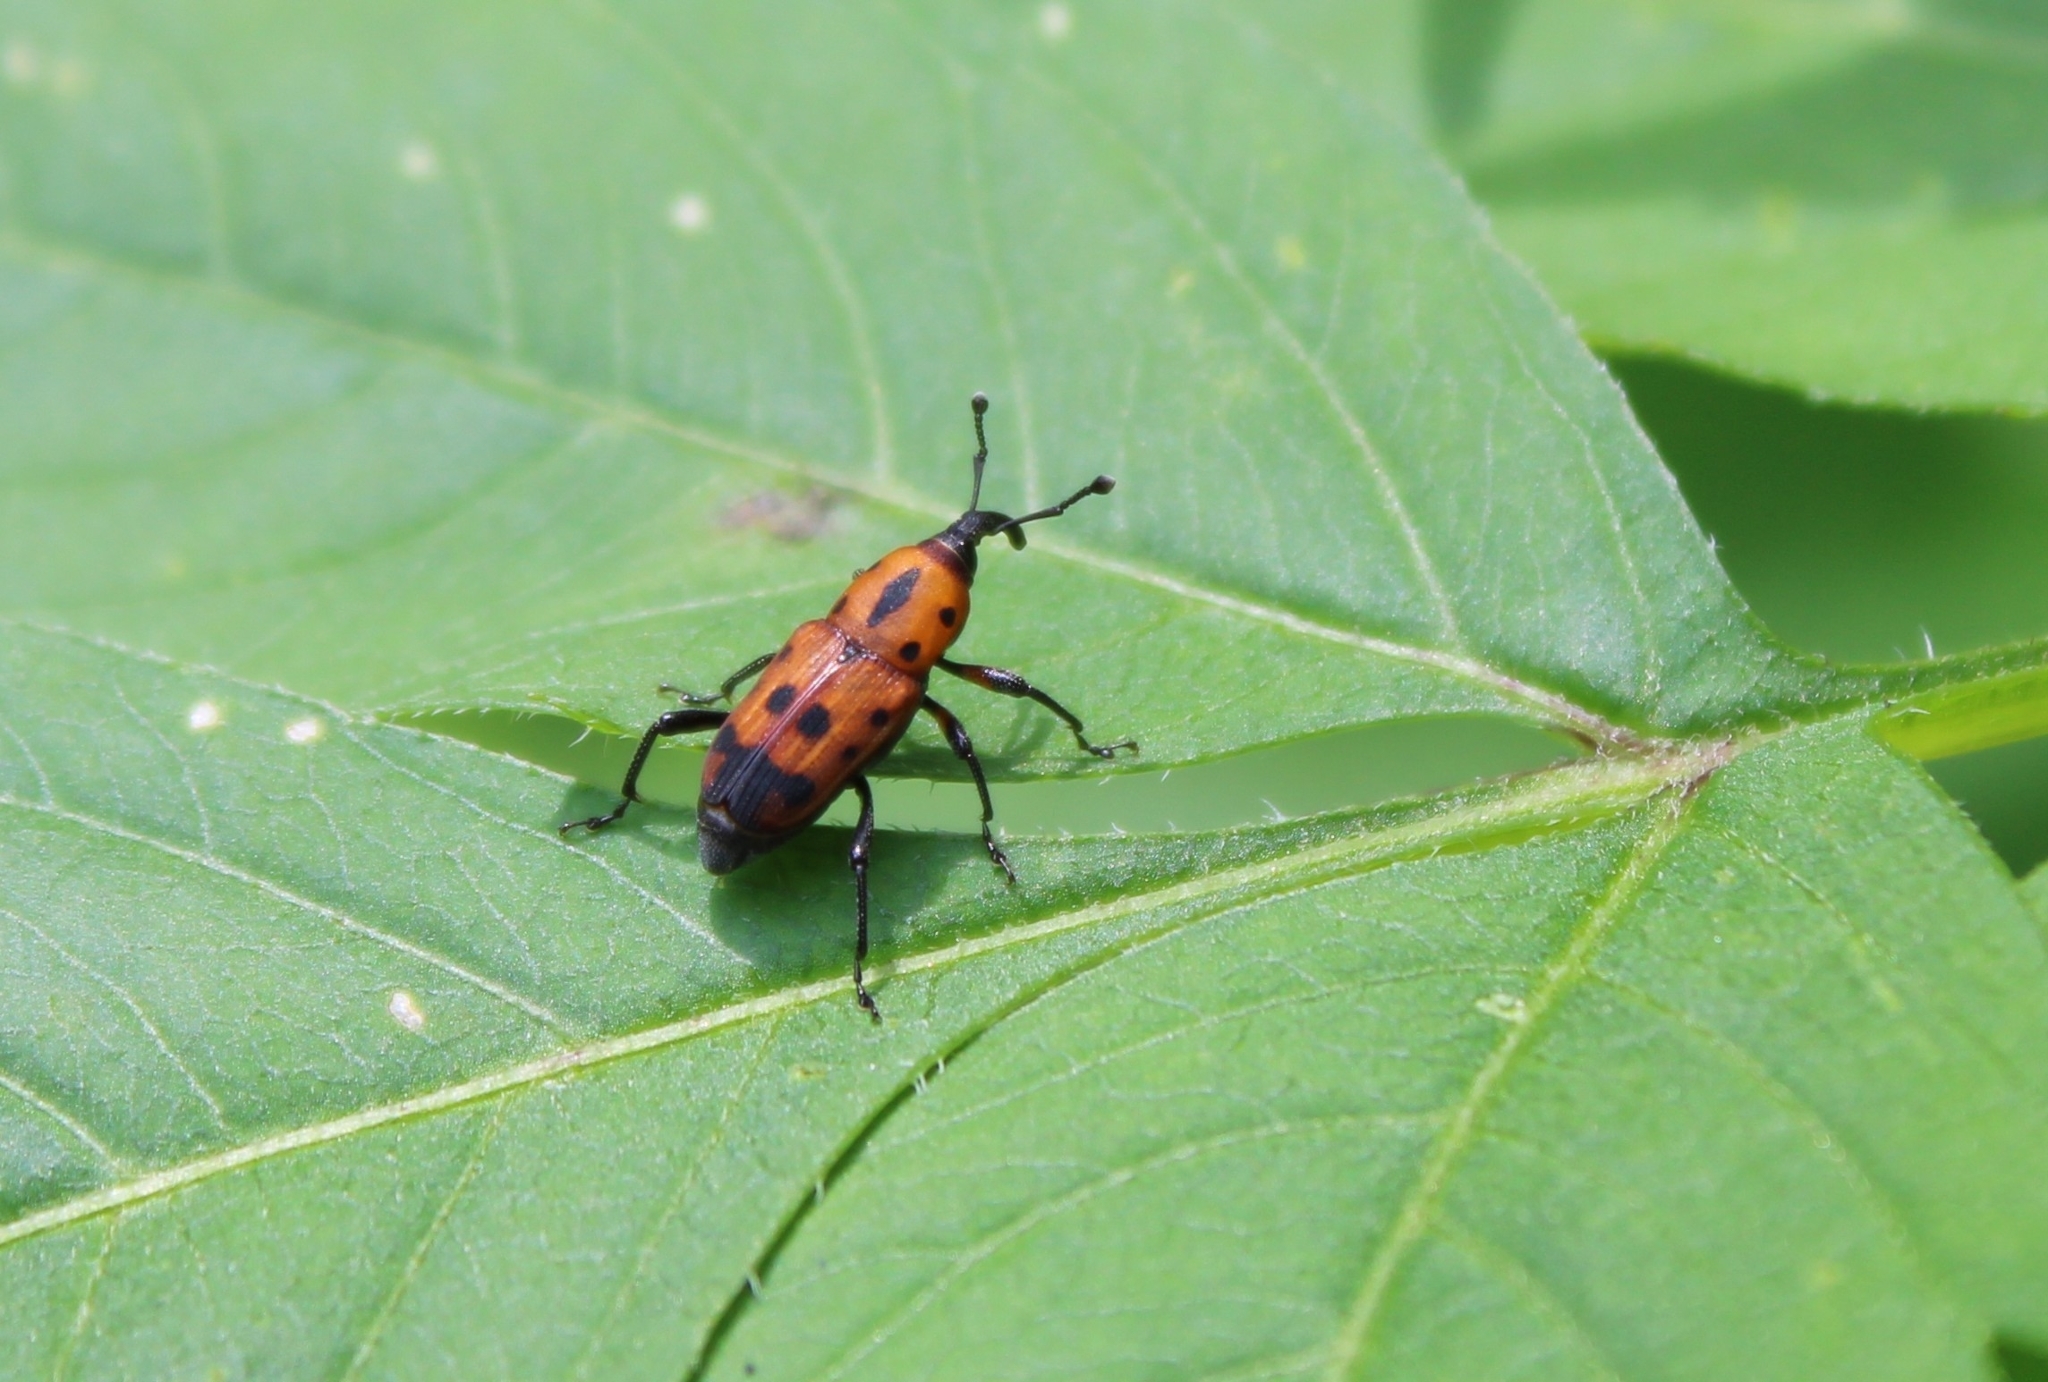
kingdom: Animalia
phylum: Arthropoda
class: Insecta
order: Coleoptera
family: Dryophthoridae
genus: Rhodobaenus
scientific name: Rhodobaenus quinquepunctatus
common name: Cocklebur weevil
